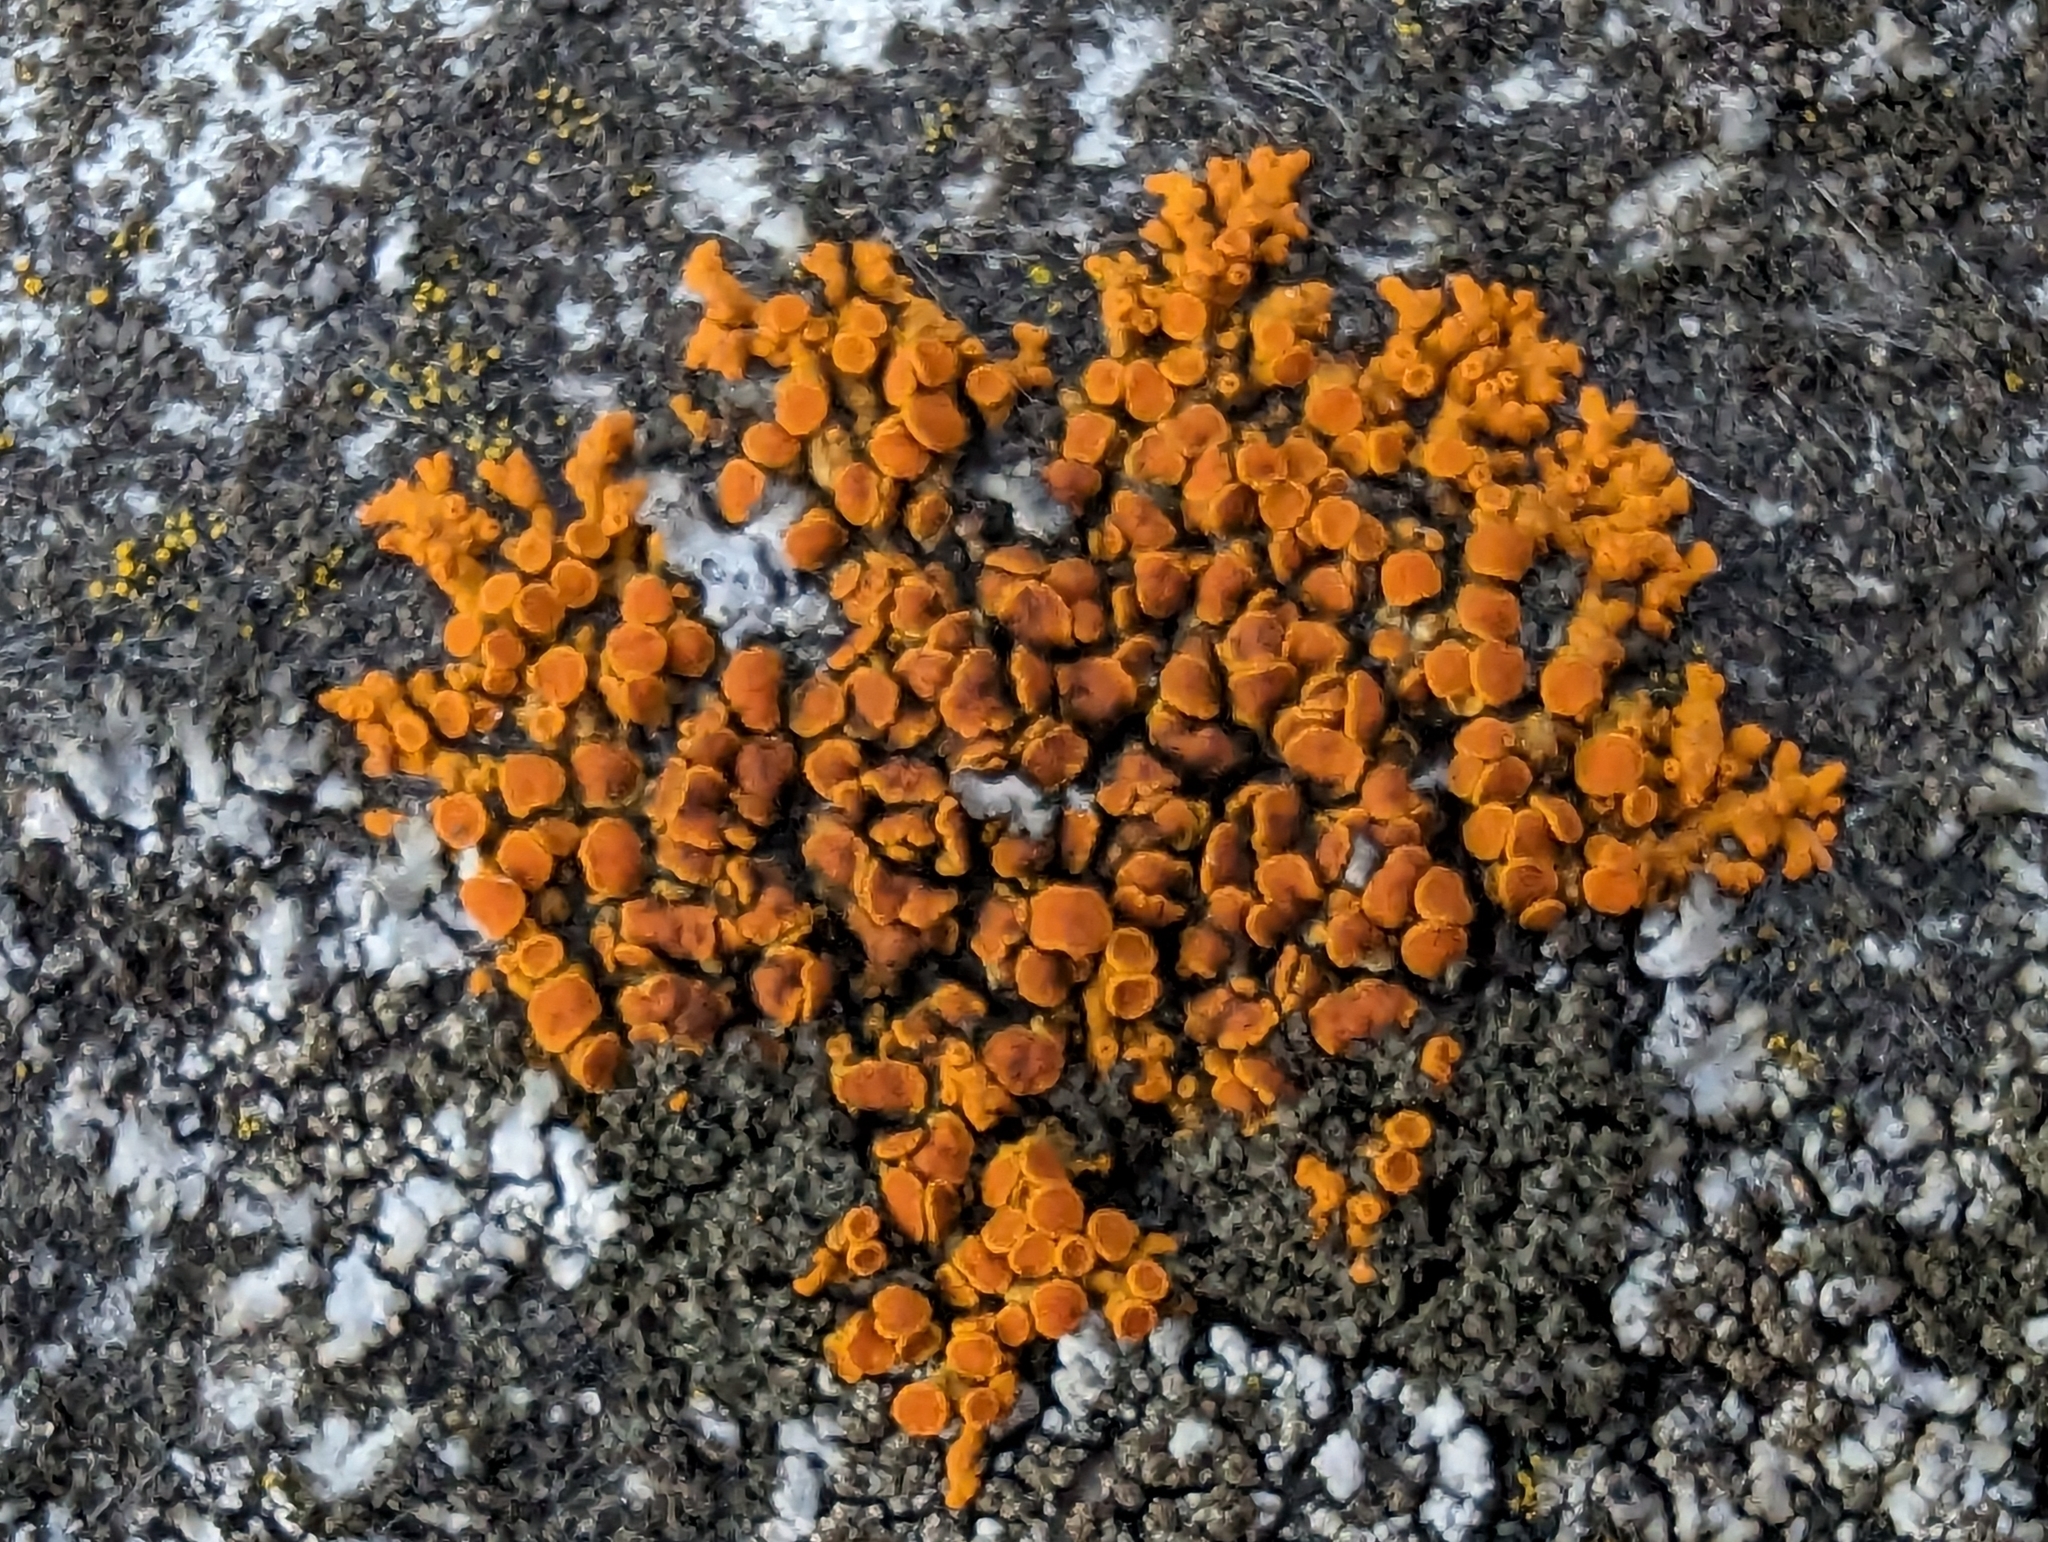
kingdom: Fungi
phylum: Ascomycota
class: Lecanoromycetes
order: Teloschistales
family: Teloschistaceae
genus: Xanthoria
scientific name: Xanthoria elegans
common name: Elegant sunburst lichen
